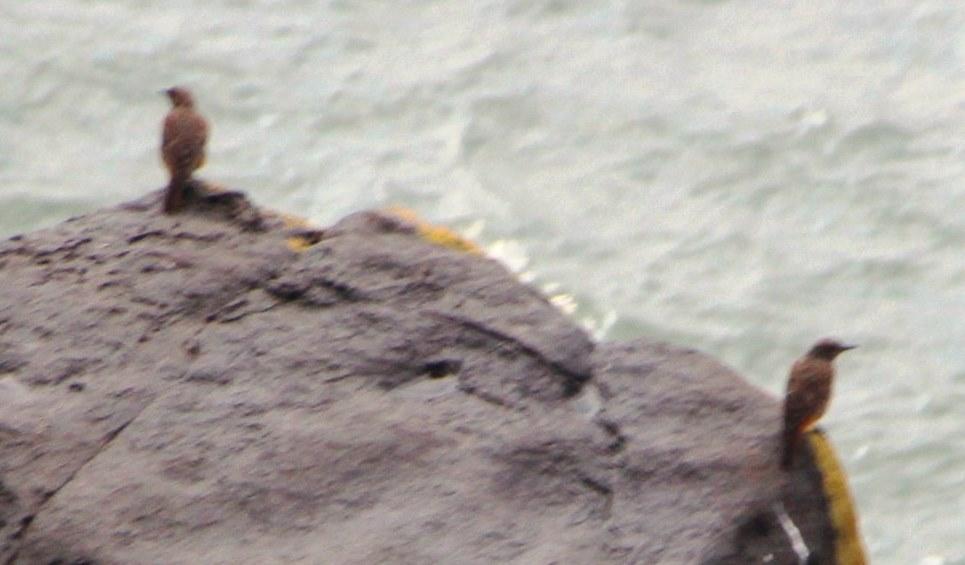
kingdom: Animalia
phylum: Chordata
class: Aves
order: Passeriformes
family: Muscicapidae
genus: Monticola
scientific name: Monticola rupestris
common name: Cape rock thrush
